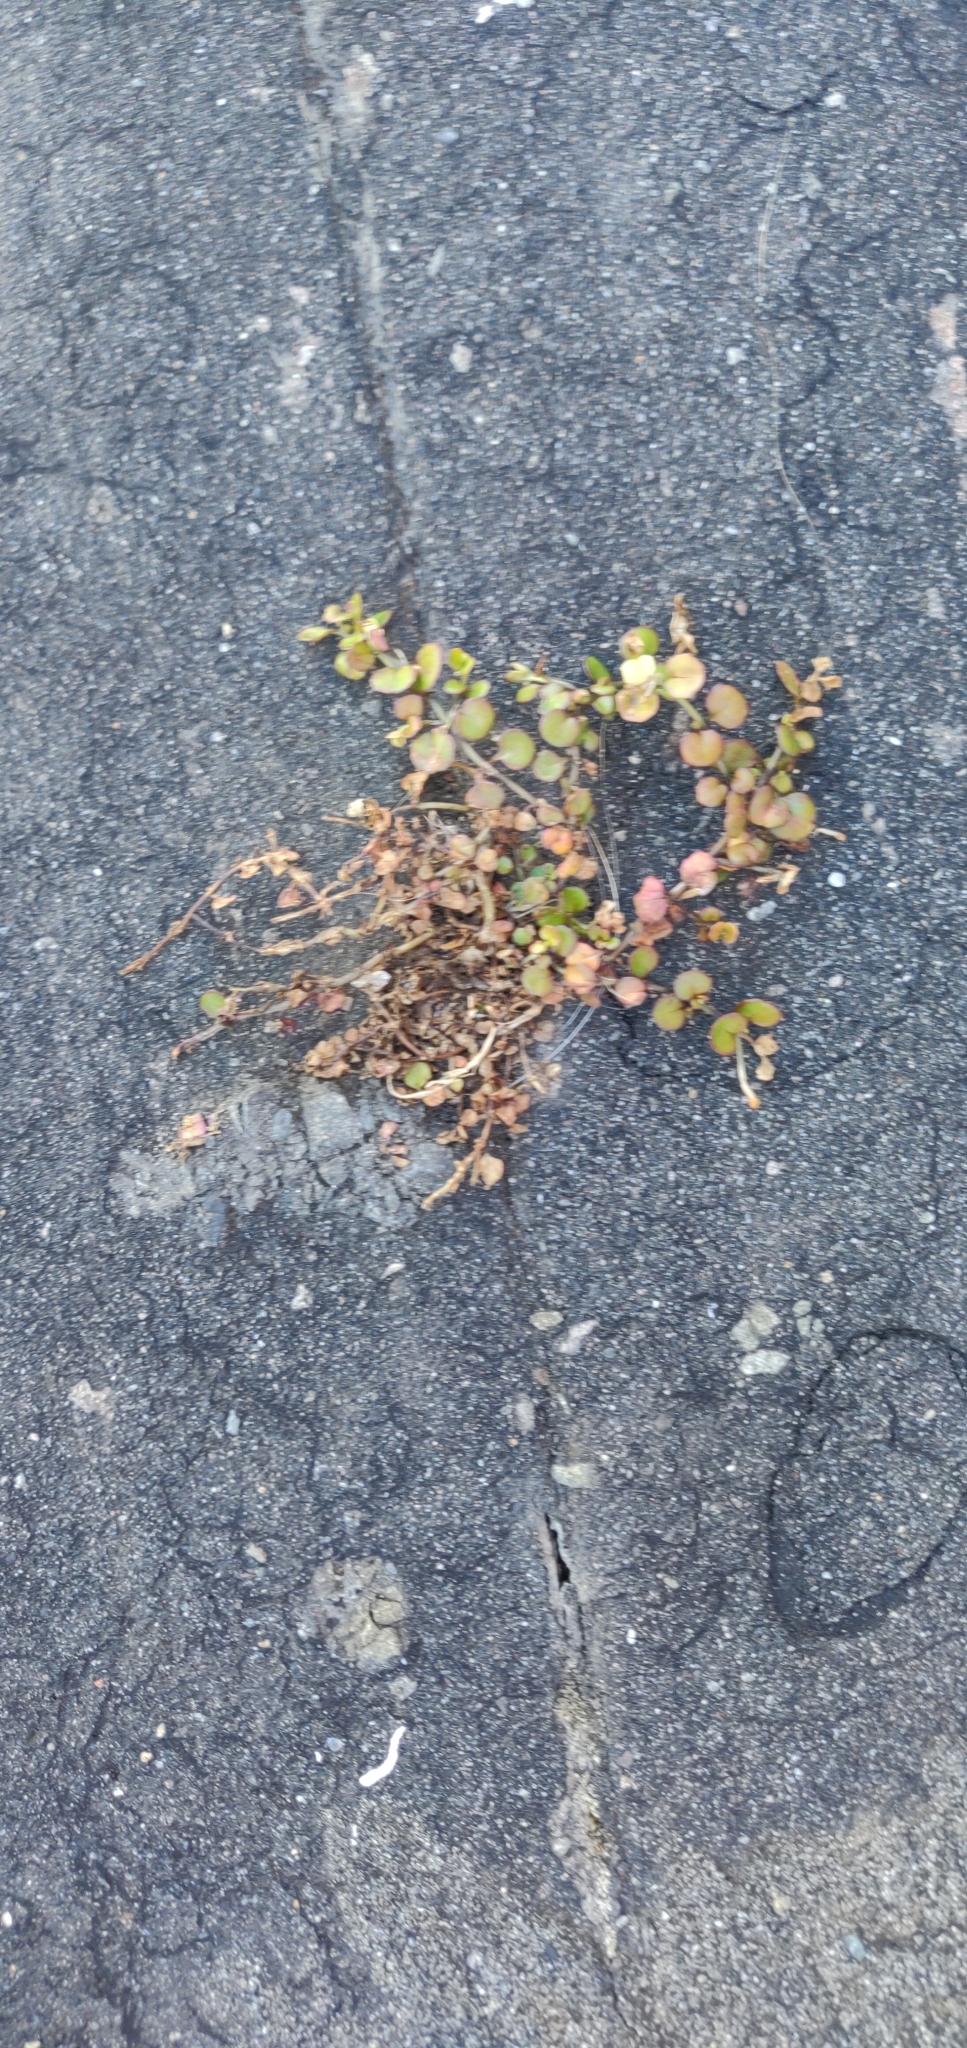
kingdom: Plantae
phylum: Tracheophyta
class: Magnoliopsida
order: Myrtales
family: Onagraceae
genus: Epilobium
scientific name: Epilobium nummularifolium
